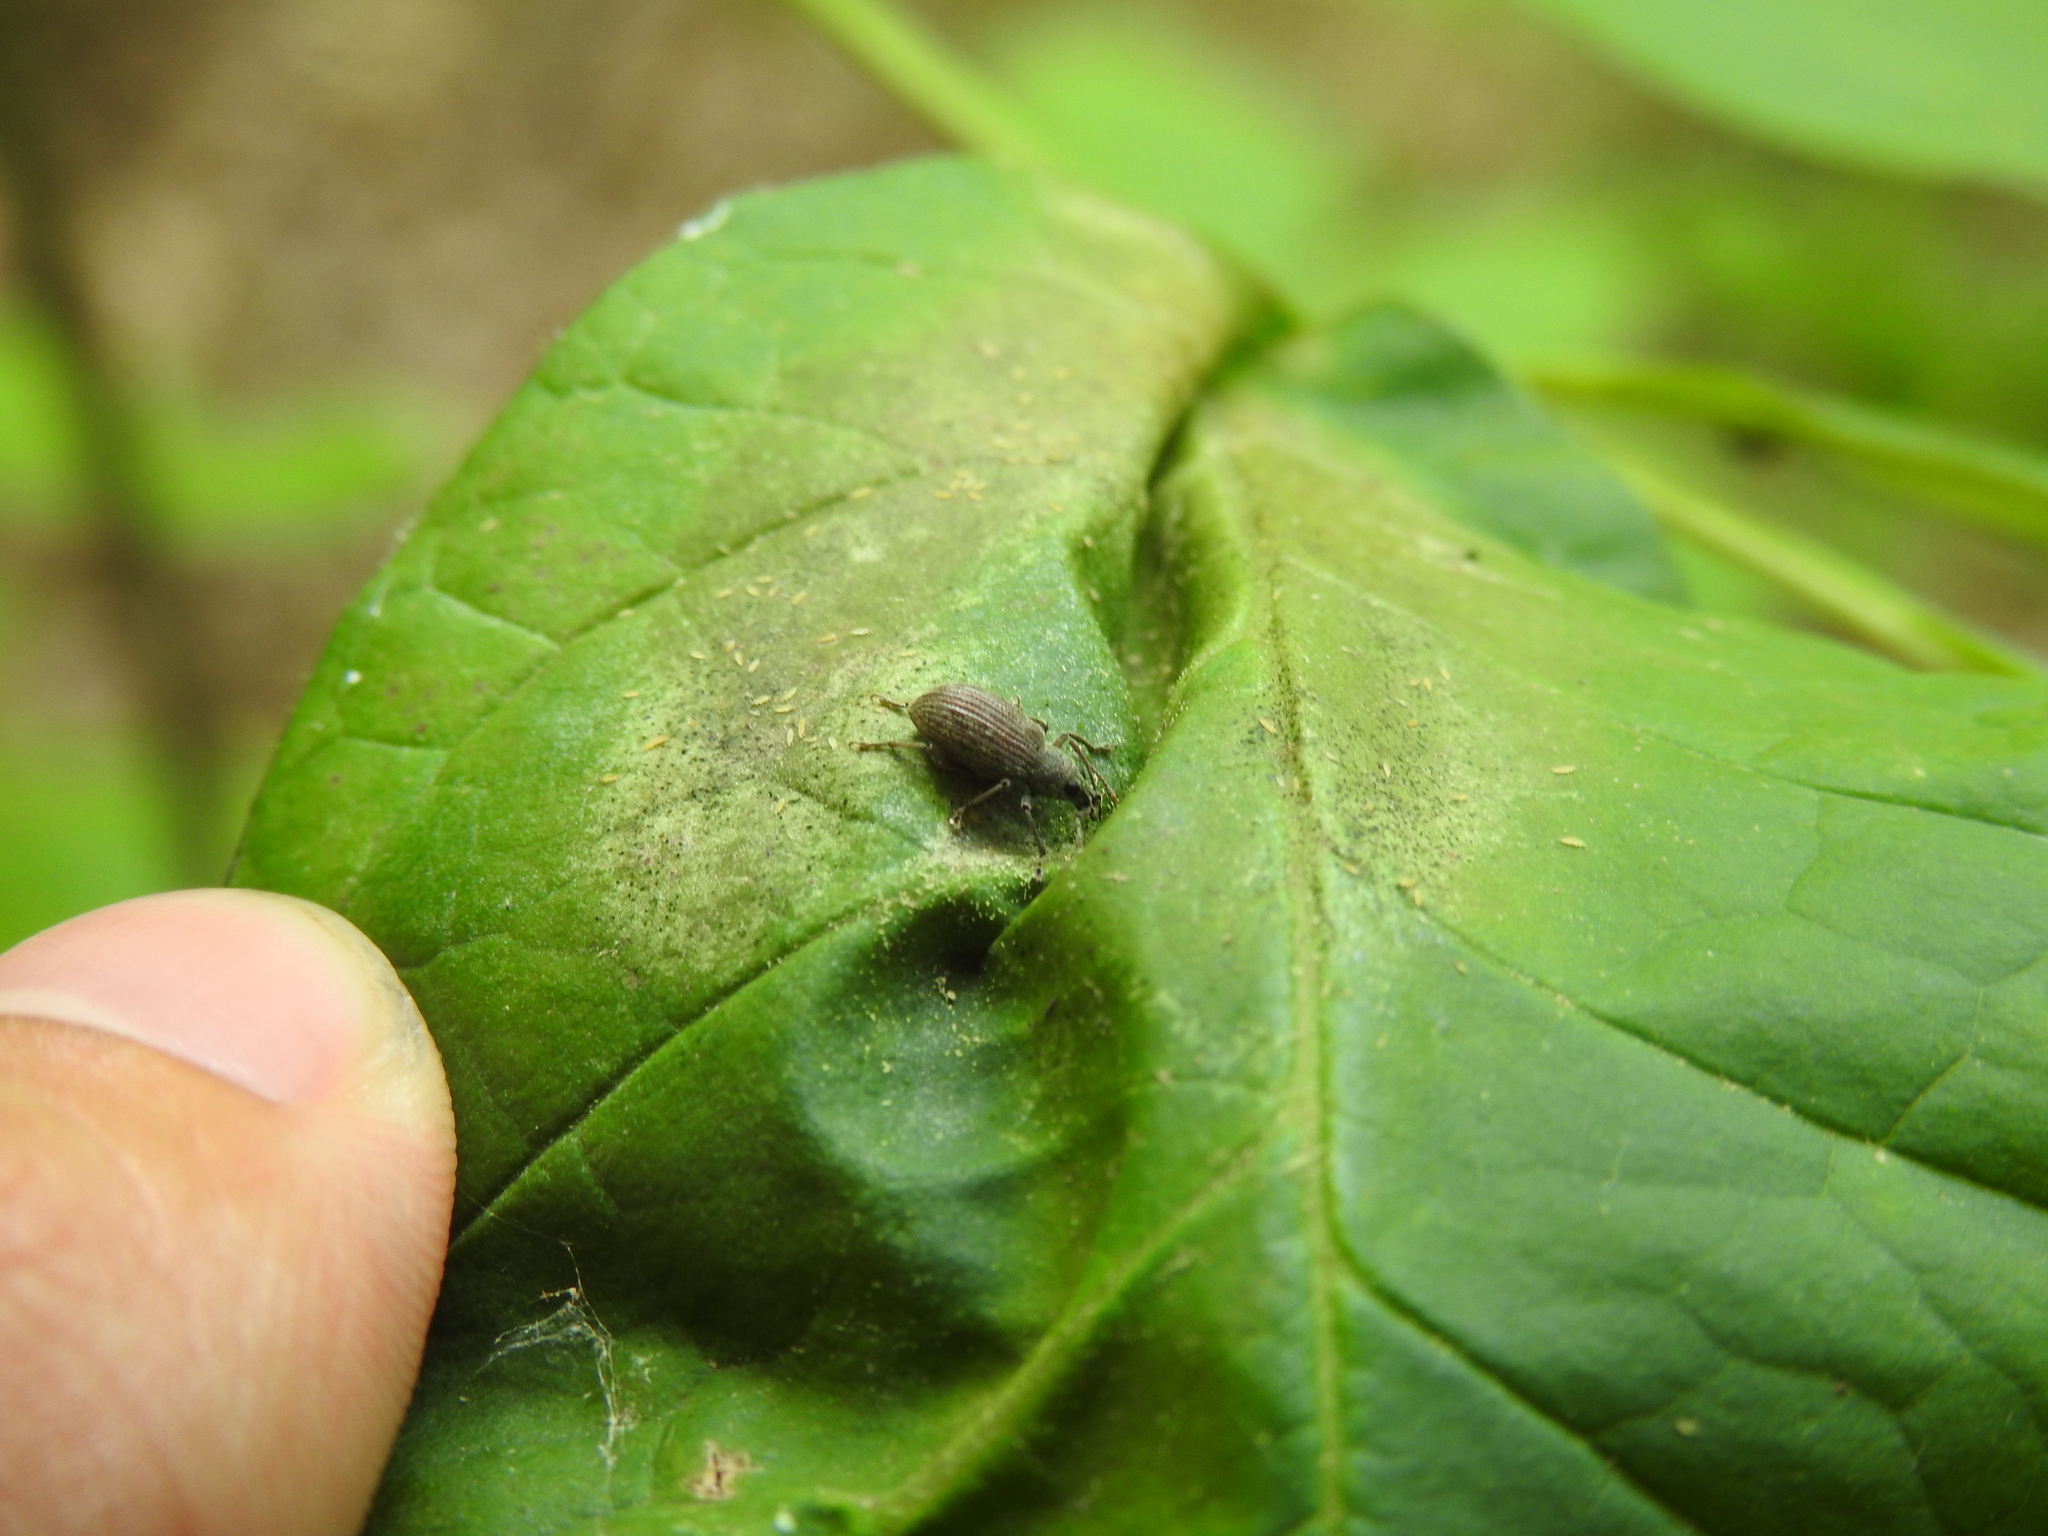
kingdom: Animalia
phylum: Arthropoda
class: Insecta
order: Coleoptera
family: Curculionidae
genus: Cyrtepistomus
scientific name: Cyrtepistomus castaneus
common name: Weevil
